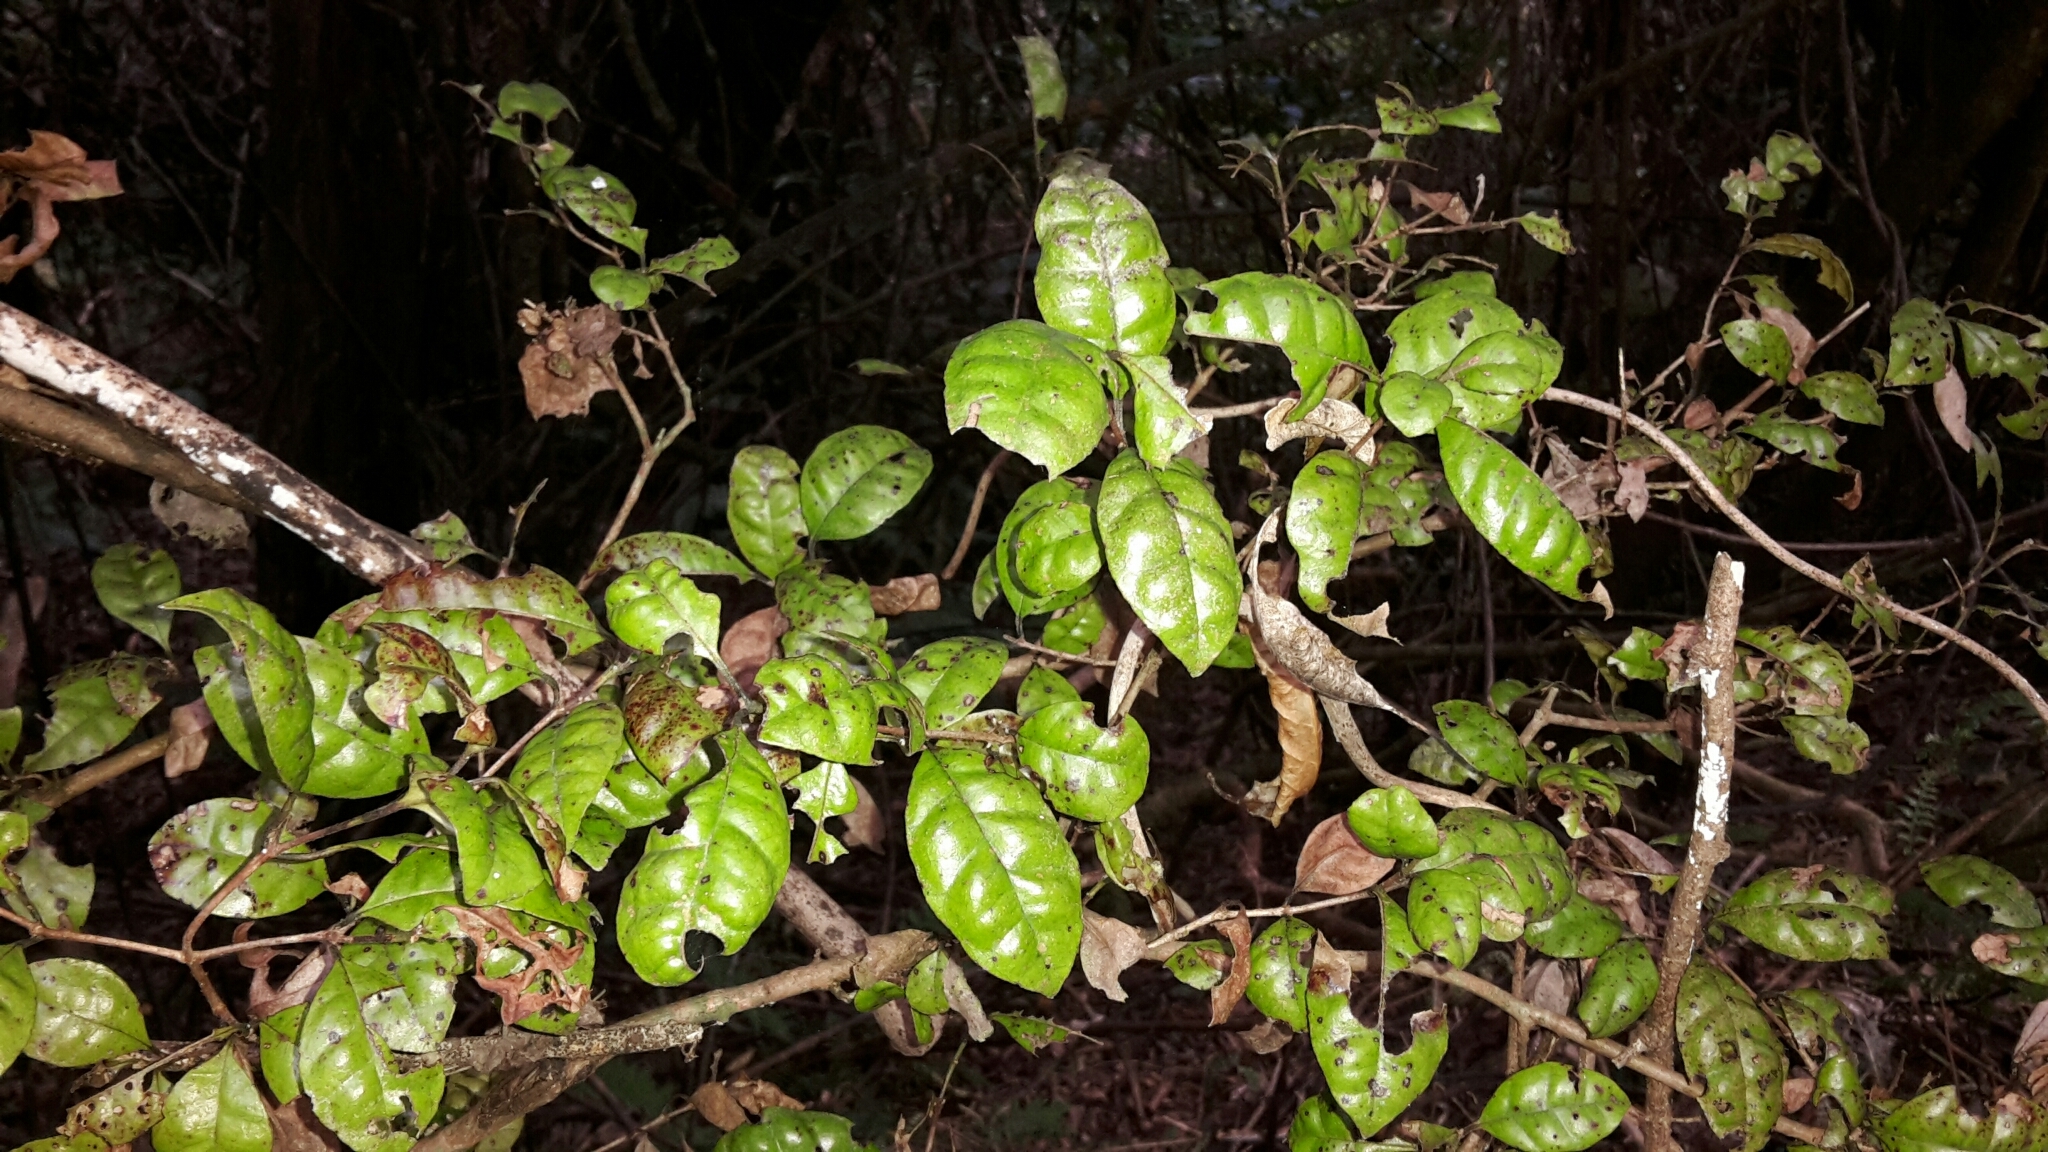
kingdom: Plantae
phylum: Tracheophyta
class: Magnoliopsida
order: Myrtales
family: Myrtaceae
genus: Lophomyrtus
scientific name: Lophomyrtus bullata
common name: Rama rama
